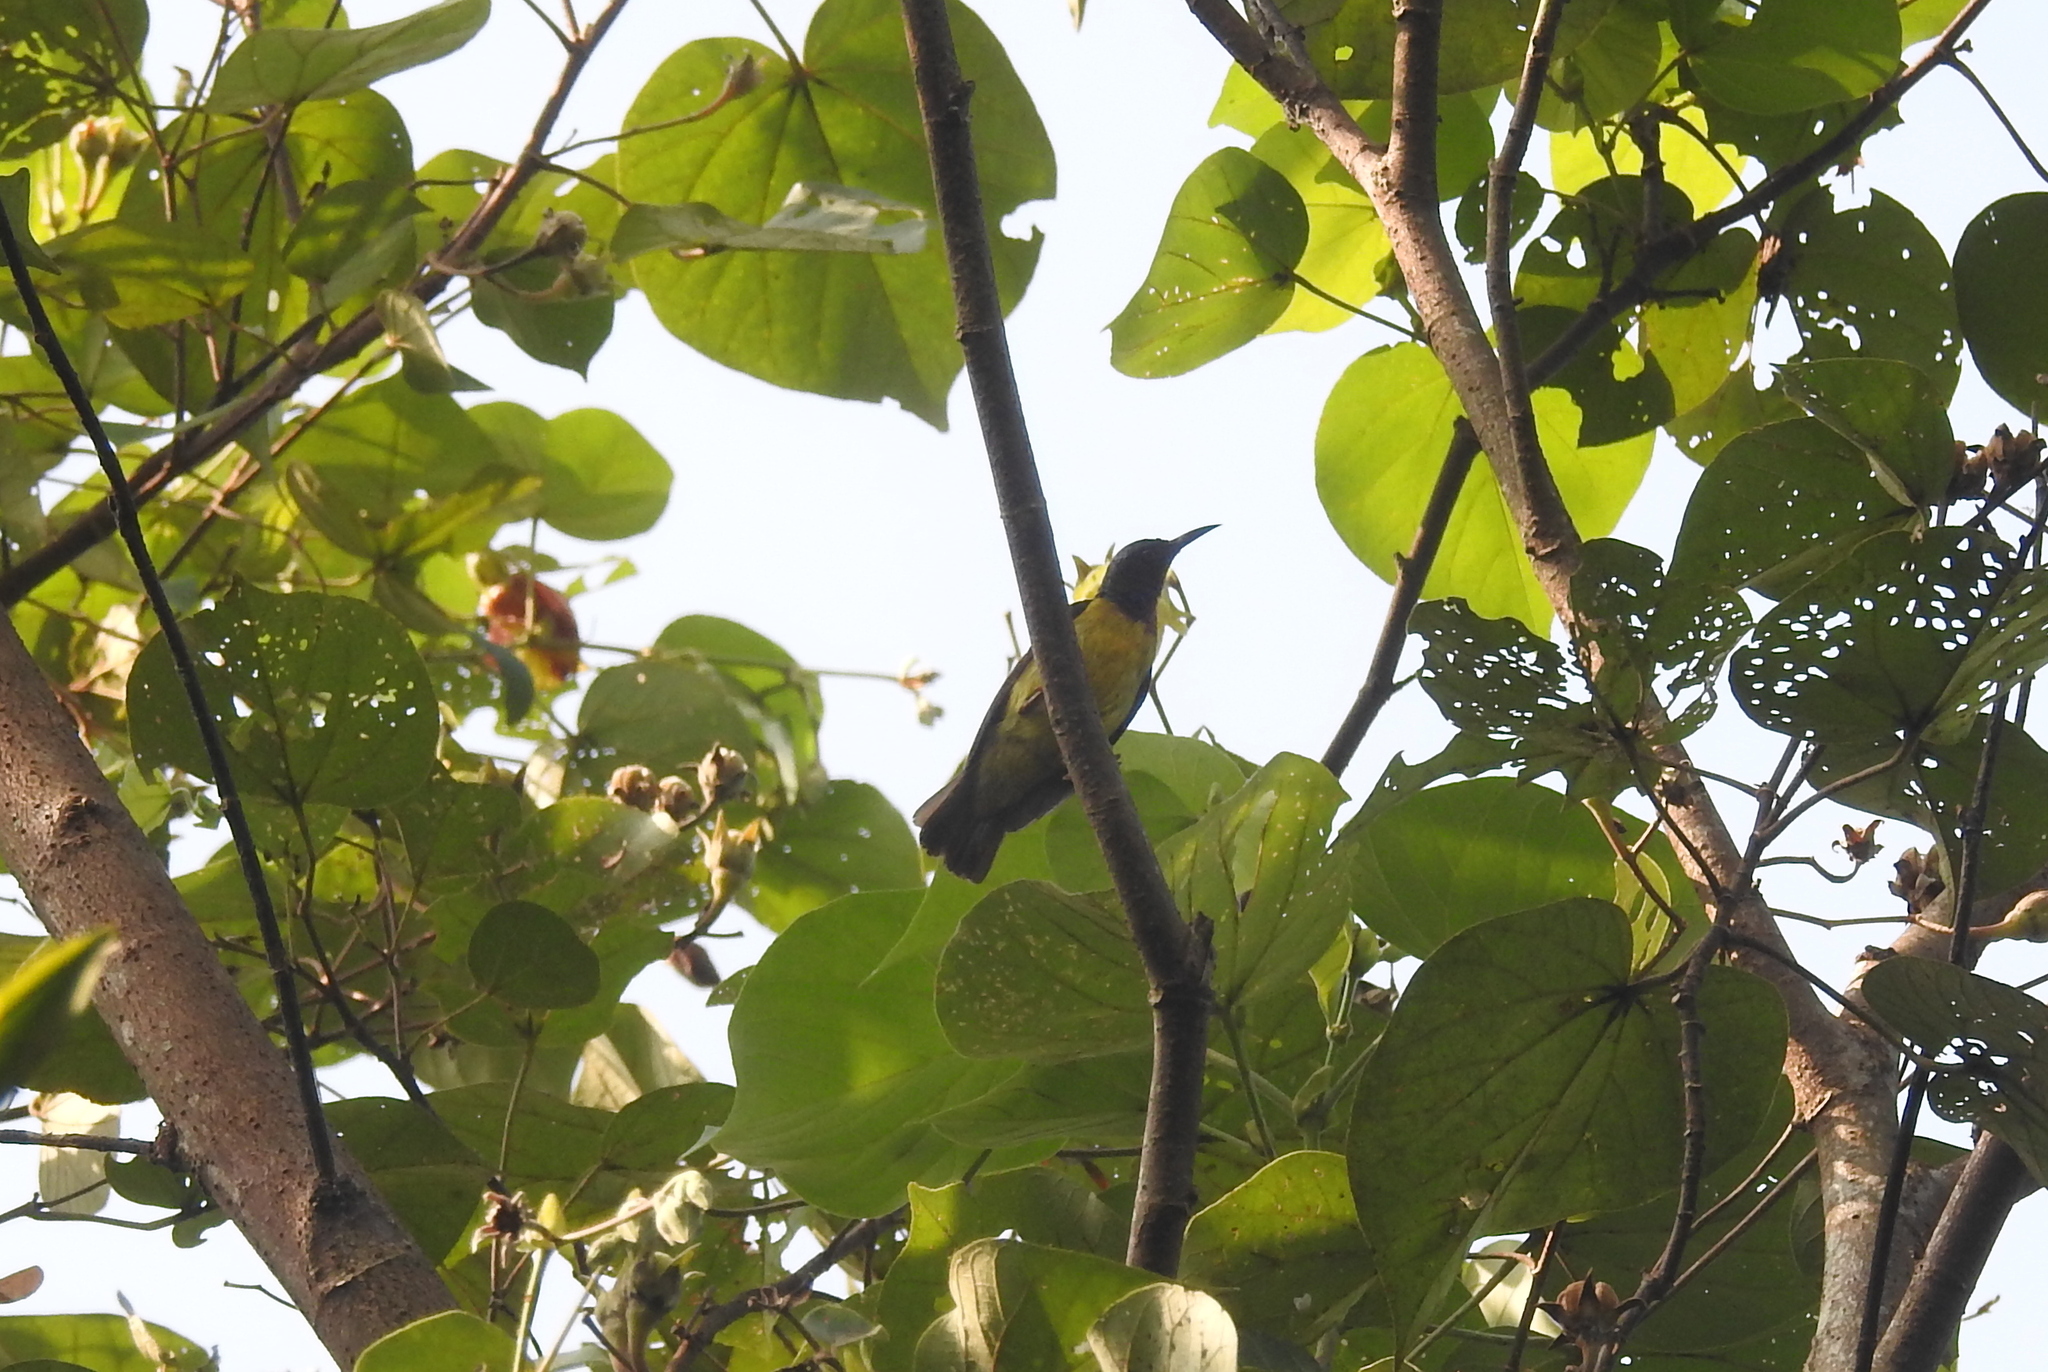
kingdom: Animalia
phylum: Chordata
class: Aves
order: Passeriformes
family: Nectariniidae
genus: Anthreptes
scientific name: Anthreptes malacensis
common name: Brown-throated sunbird
